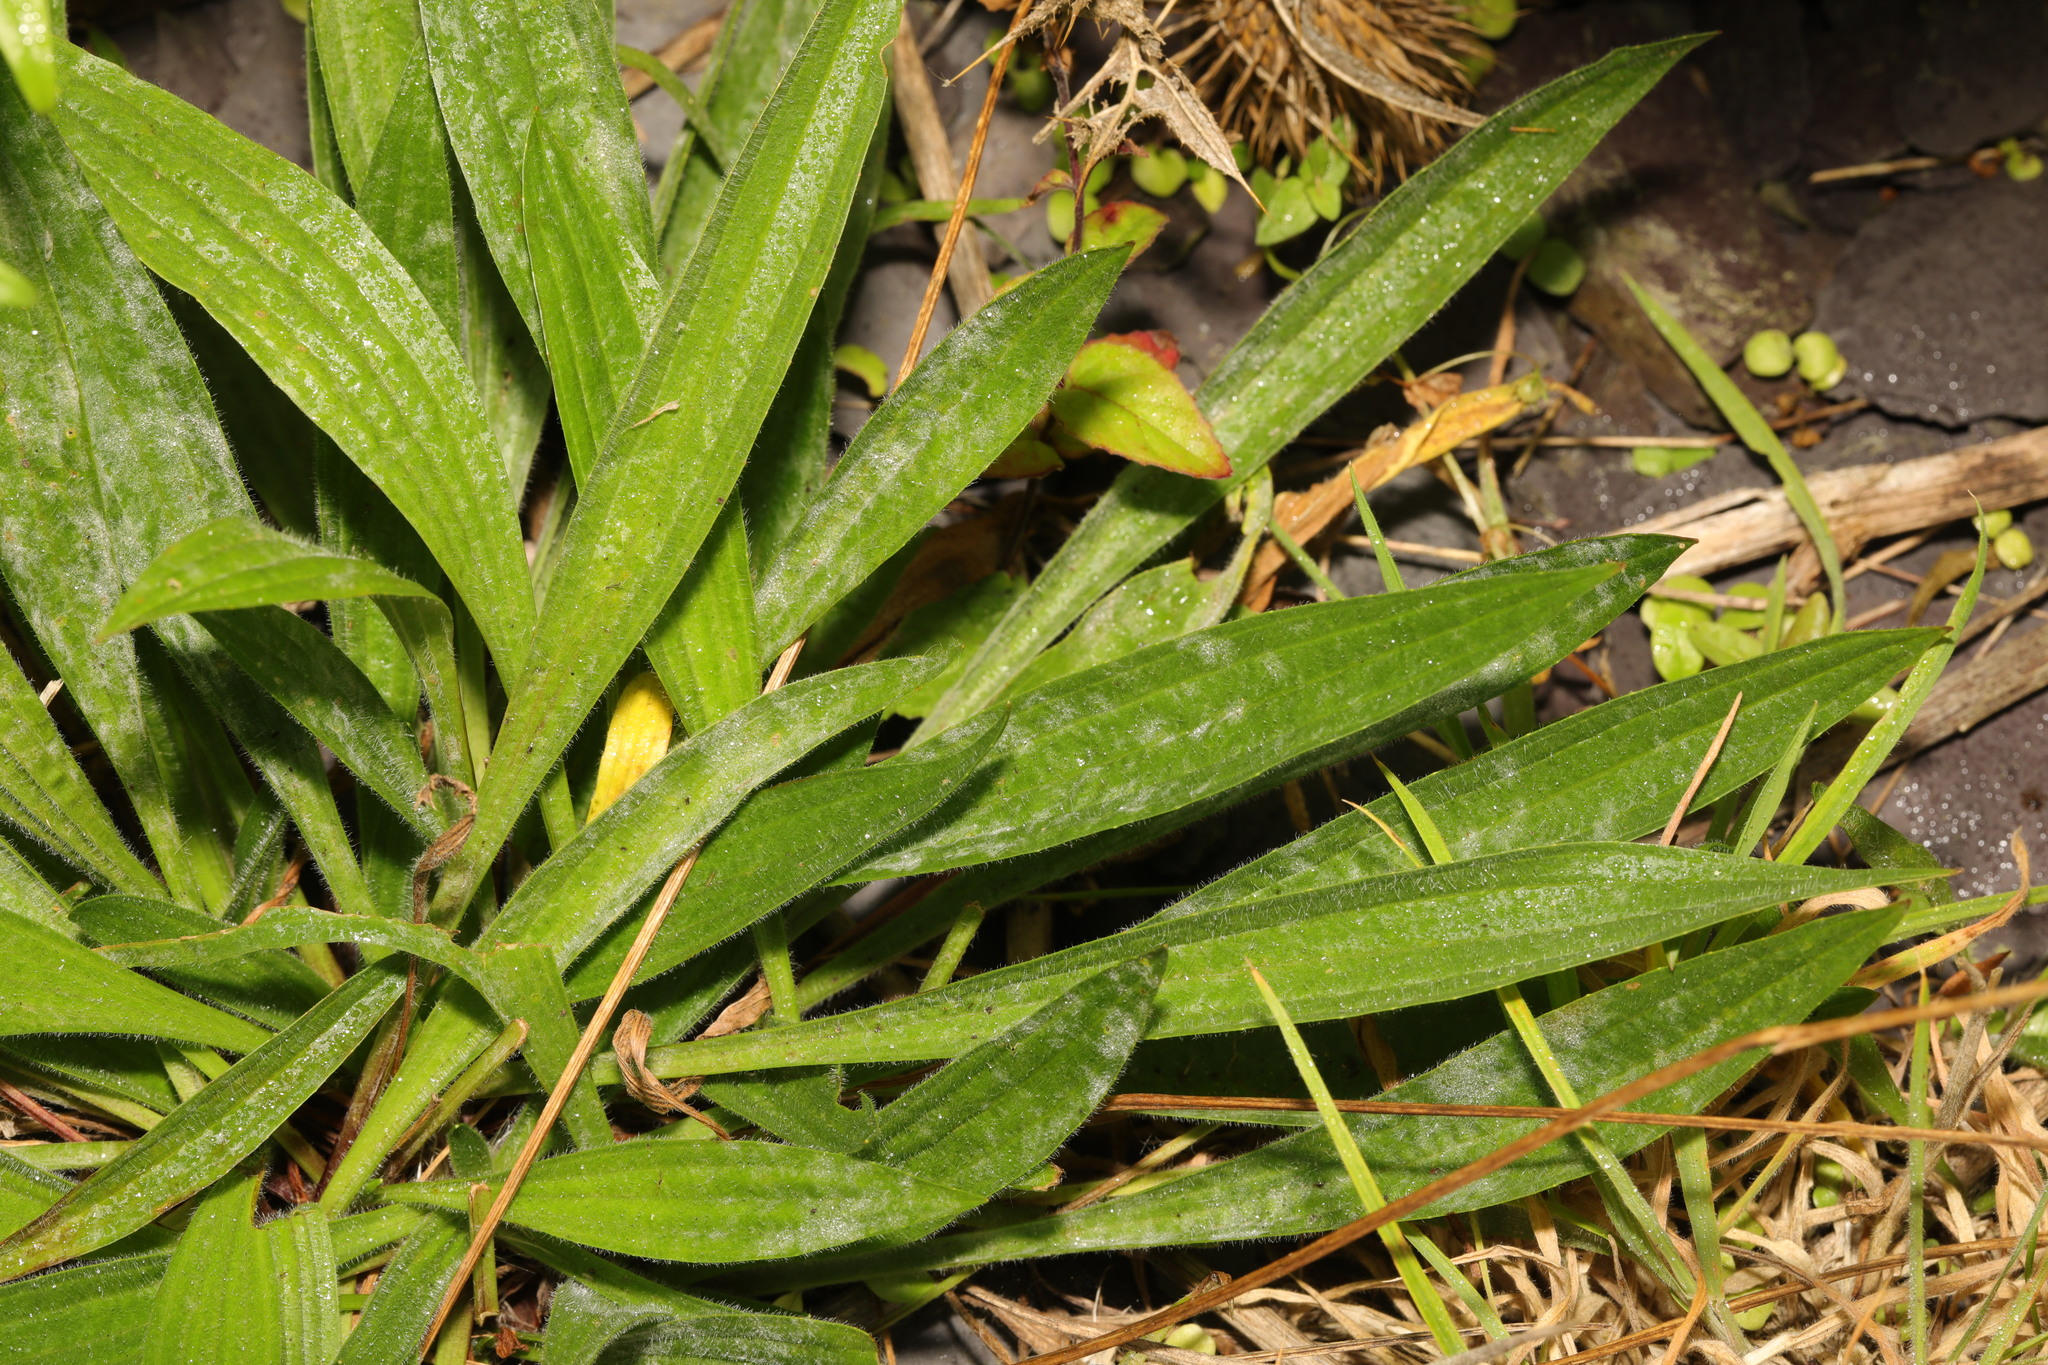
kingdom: Plantae
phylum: Tracheophyta
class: Magnoliopsida
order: Lamiales
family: Plantaginaceae
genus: Plantago
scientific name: Plantago lanceolata
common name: Ribwort plantain
